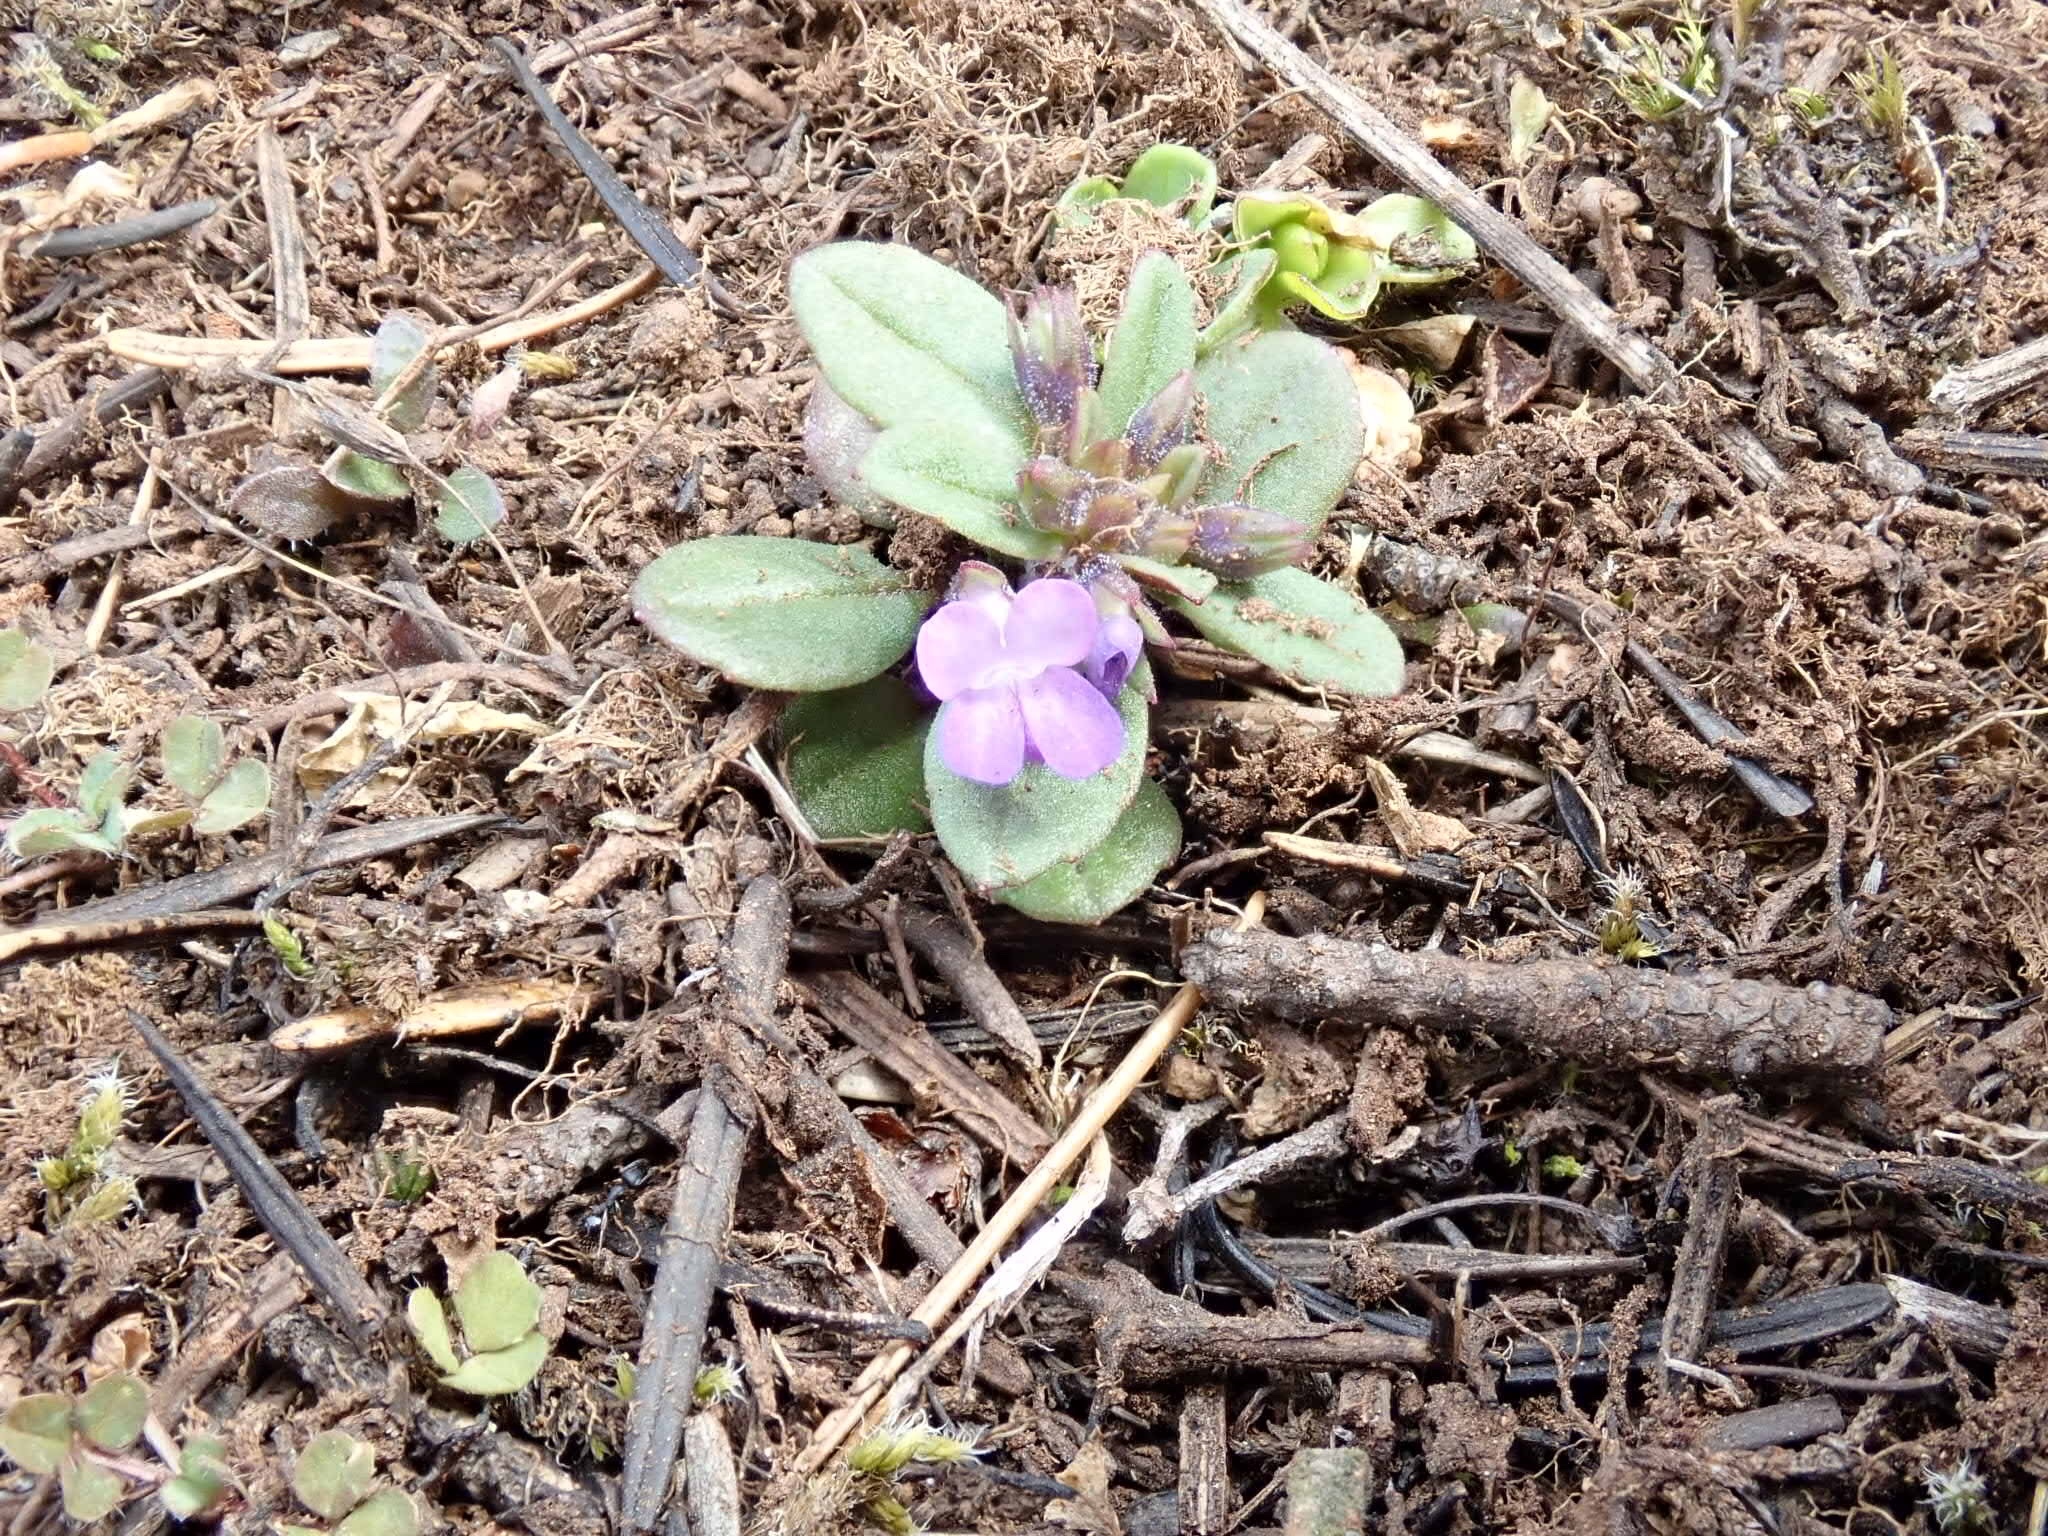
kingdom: Plantae
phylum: Tracheophyta
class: Magnoliopsida
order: Lamiales
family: Plantaginaceae
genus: Collinsia
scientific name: Collinsia parviflora
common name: Blue-lips
